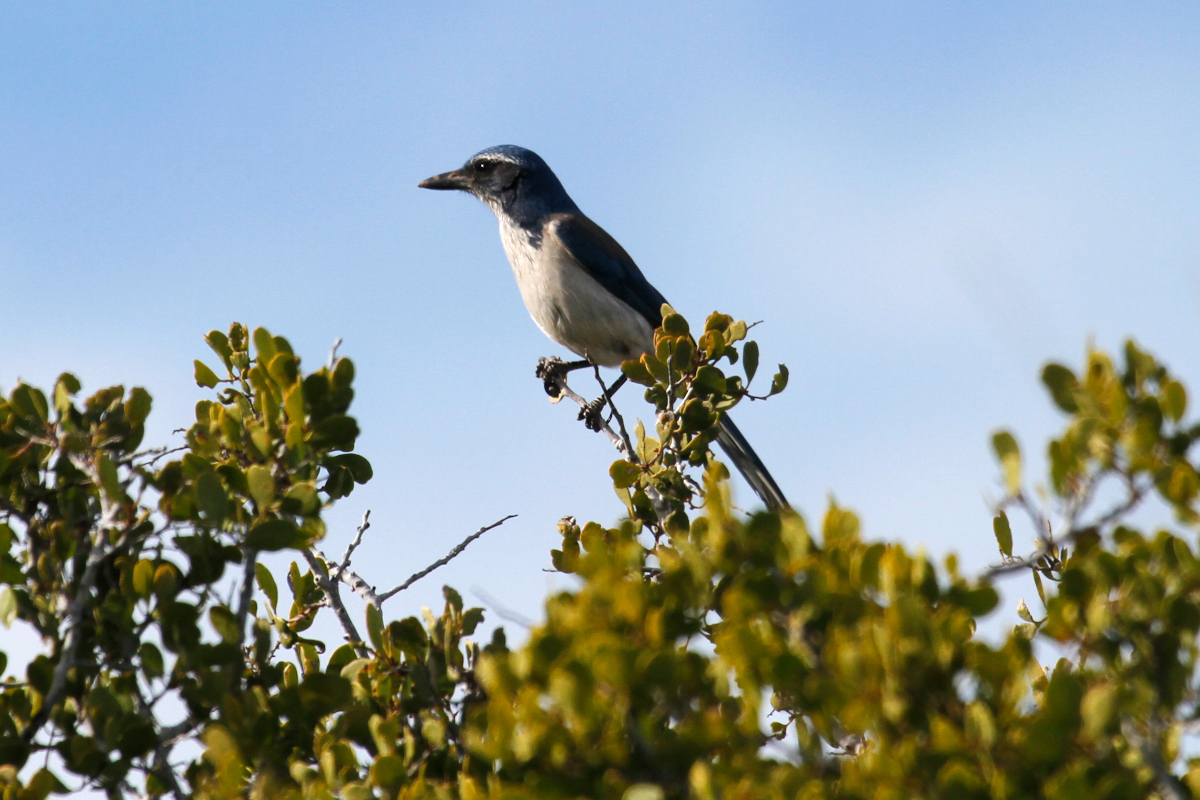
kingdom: Animalia
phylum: Chordata
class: Aves
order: Passeriformes
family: Corvidae
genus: Aphelocoma
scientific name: Aphelocoma californica
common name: California scrub-jay
